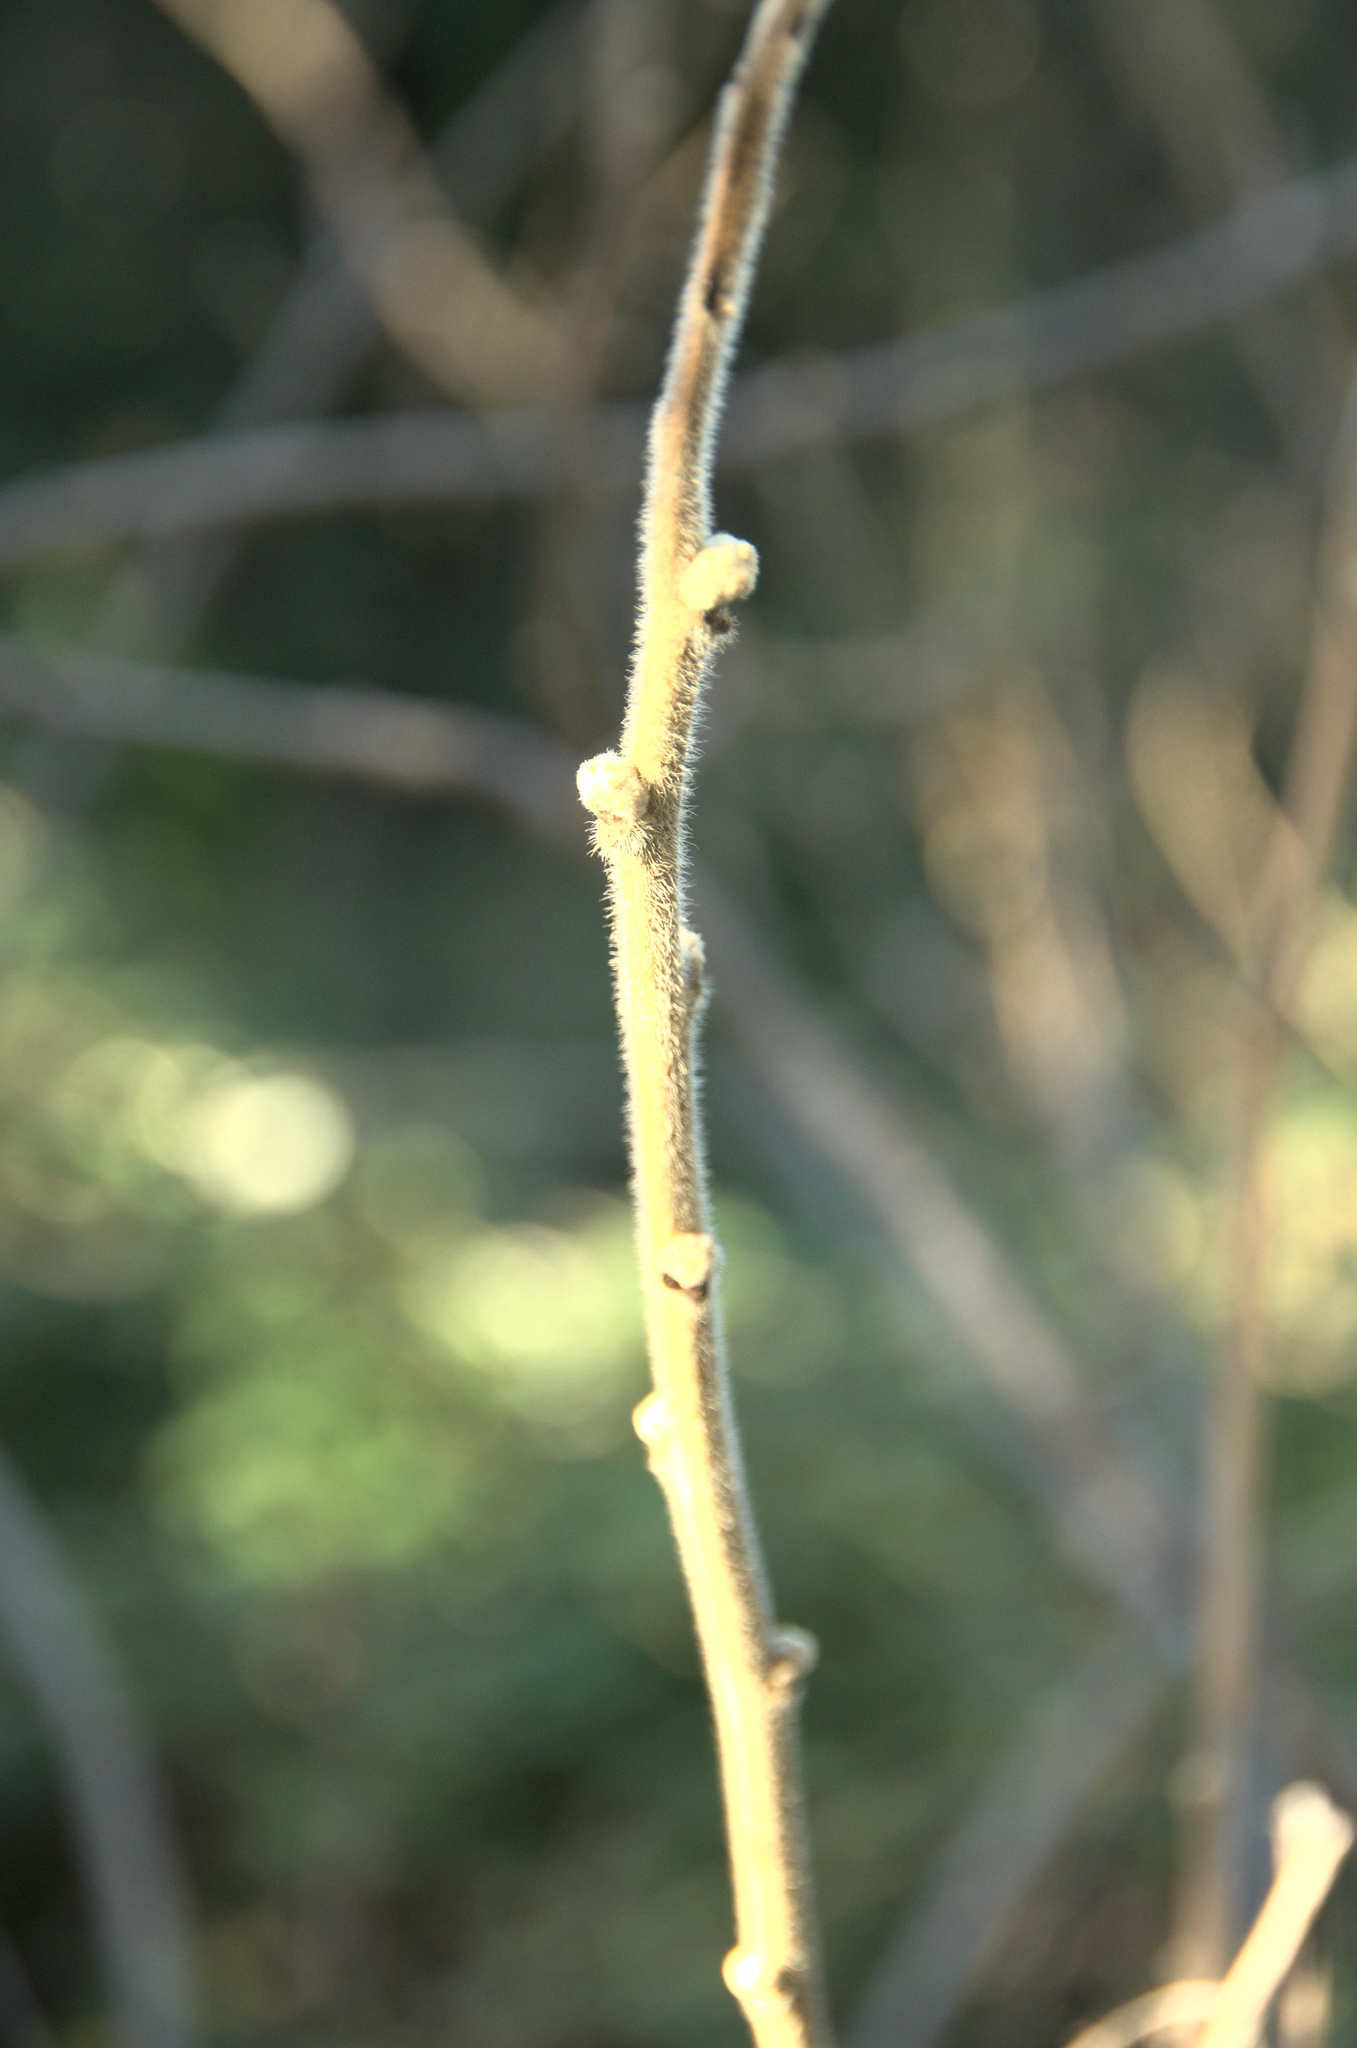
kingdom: Plantae
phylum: Tracheophyta
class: Magnoliopsida
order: Sapindales
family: Anacardiaceae
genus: Rhus
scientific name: Rhus typhina
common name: Staghorn sumac
